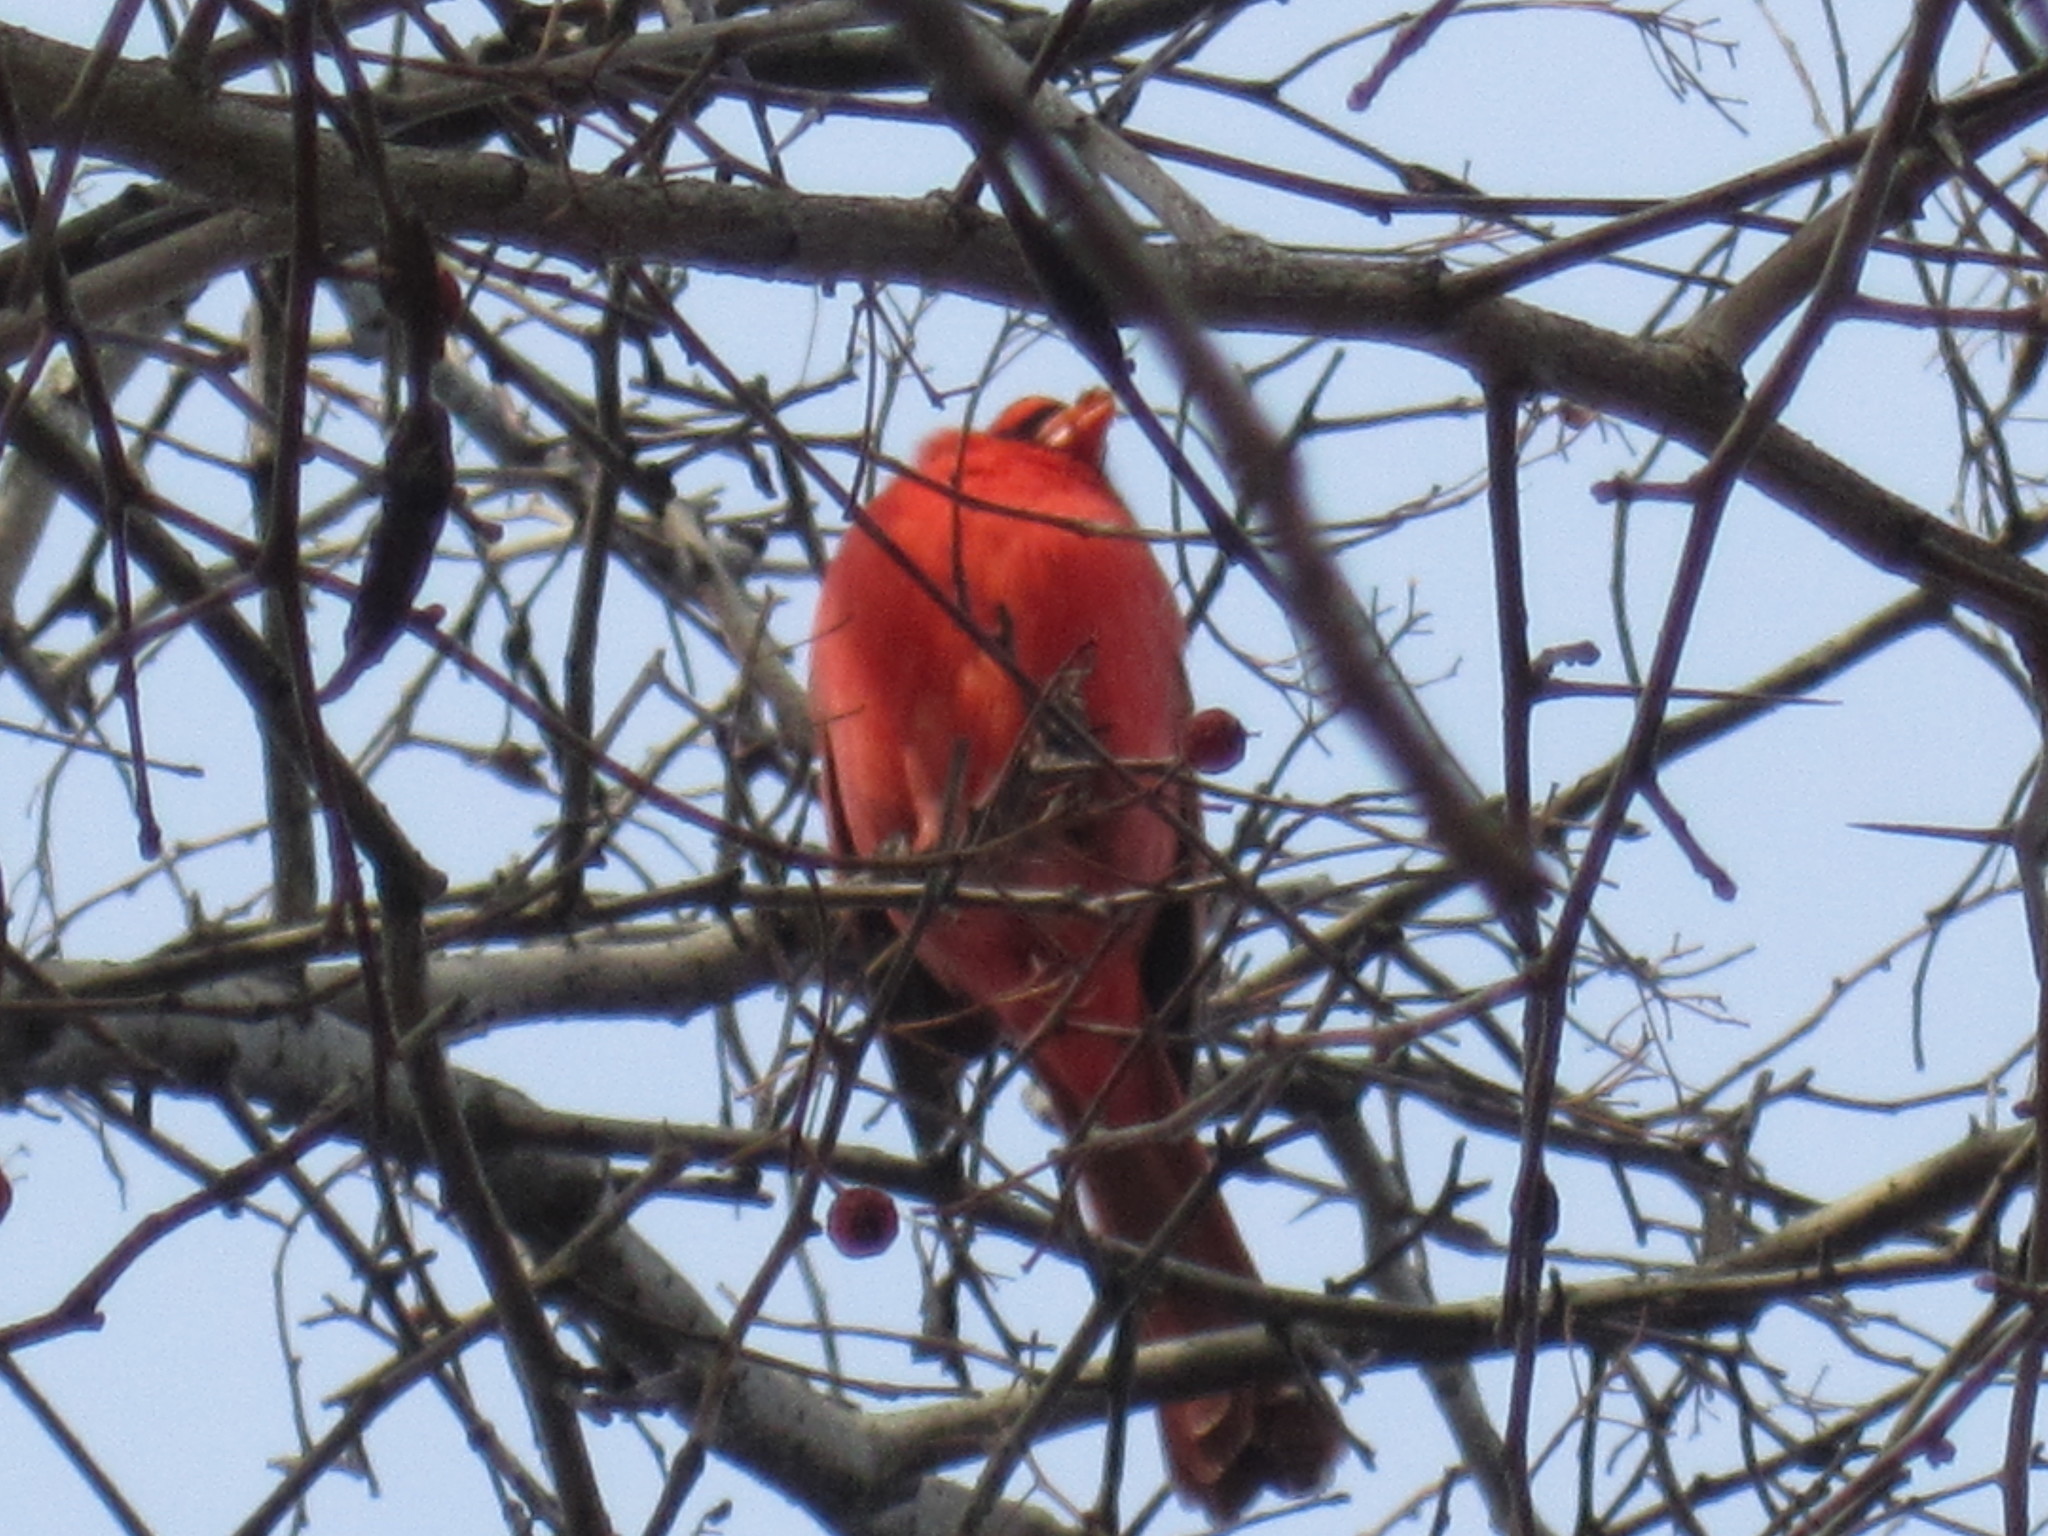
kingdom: Animalia
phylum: Chordata
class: Aves
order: Passeriformes
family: Cardinalidae
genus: Cardinalis
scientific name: Cardinalis cardinalis
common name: Northern cardinal
